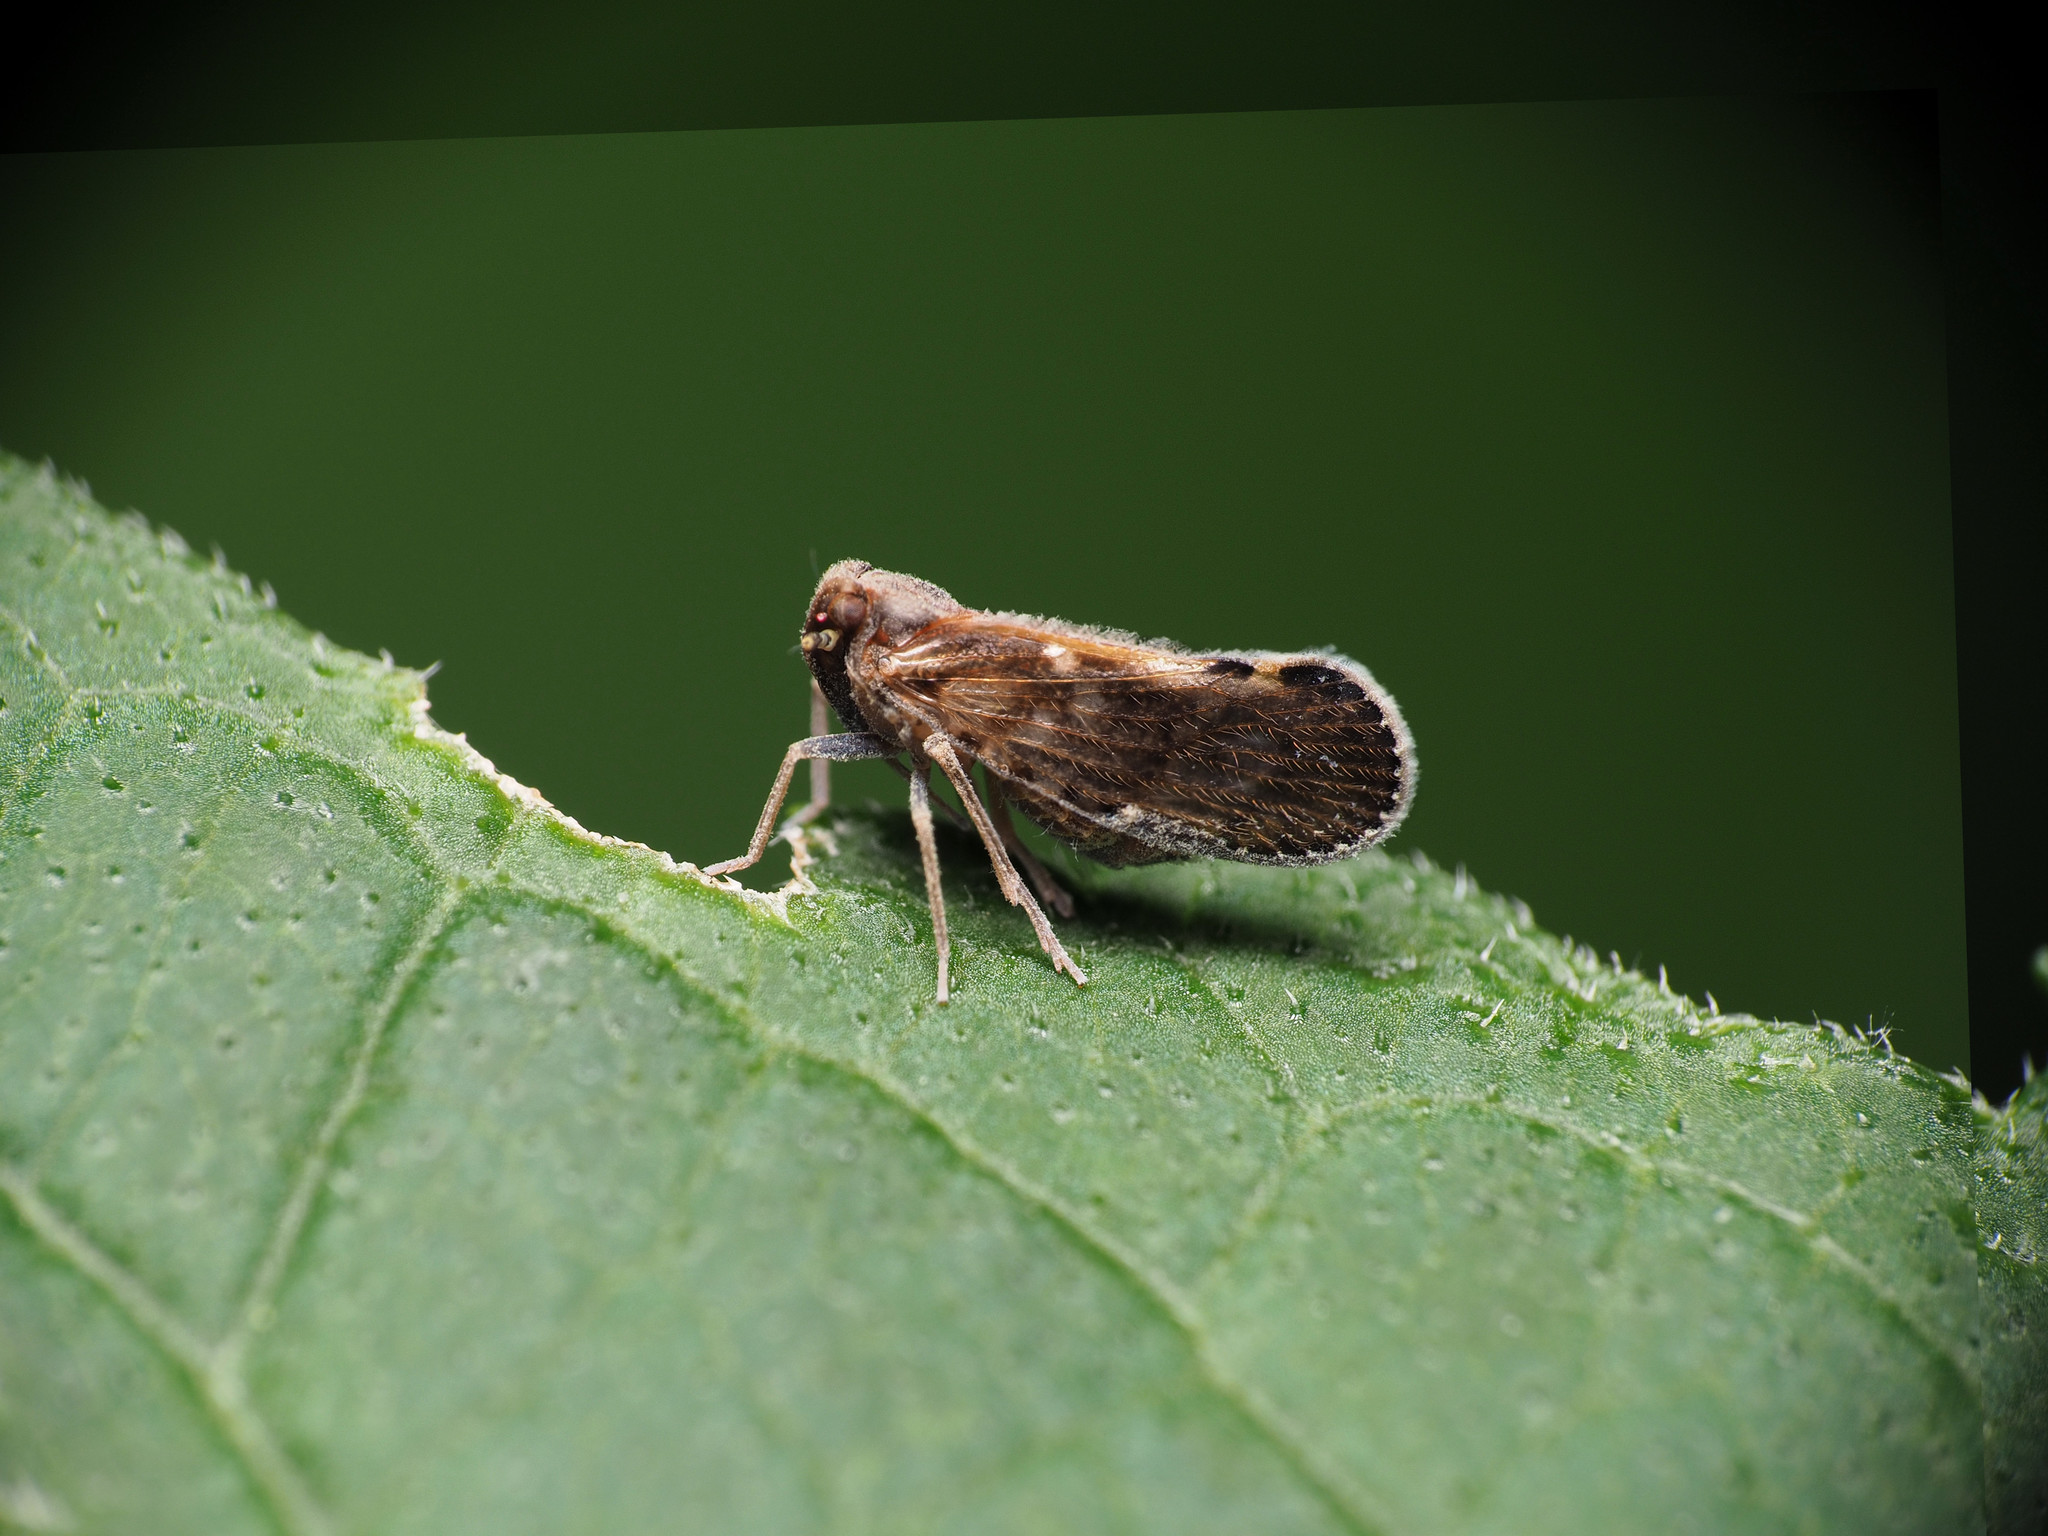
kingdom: Animalia
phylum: Arthropoda
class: Insecta
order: Hemiptera
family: Cixiidae
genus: Pintalia
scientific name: Pintalia vibex
